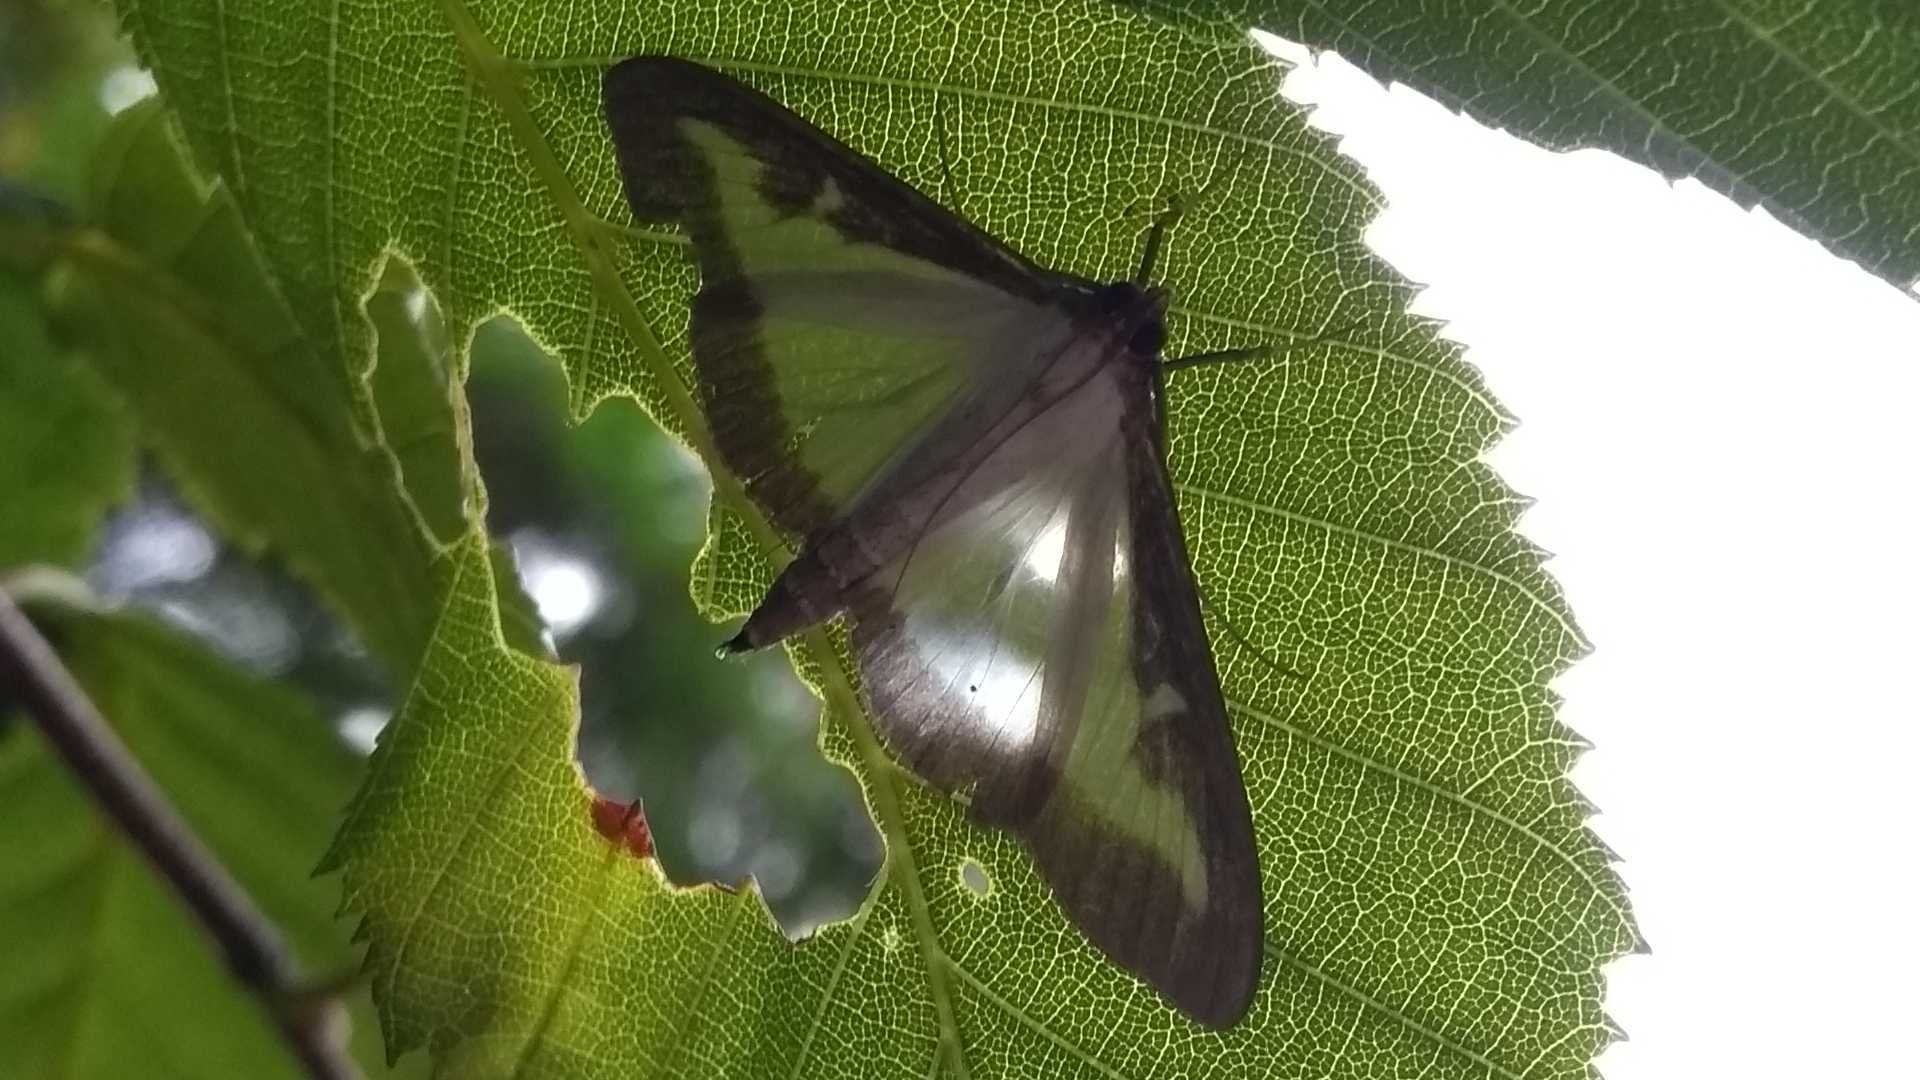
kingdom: Animalia
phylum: Arthropoda
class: Insecta
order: Lepidoptera
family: Crambidae
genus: Cydalima
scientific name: Cydalima perspectalis
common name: Box tree moth
